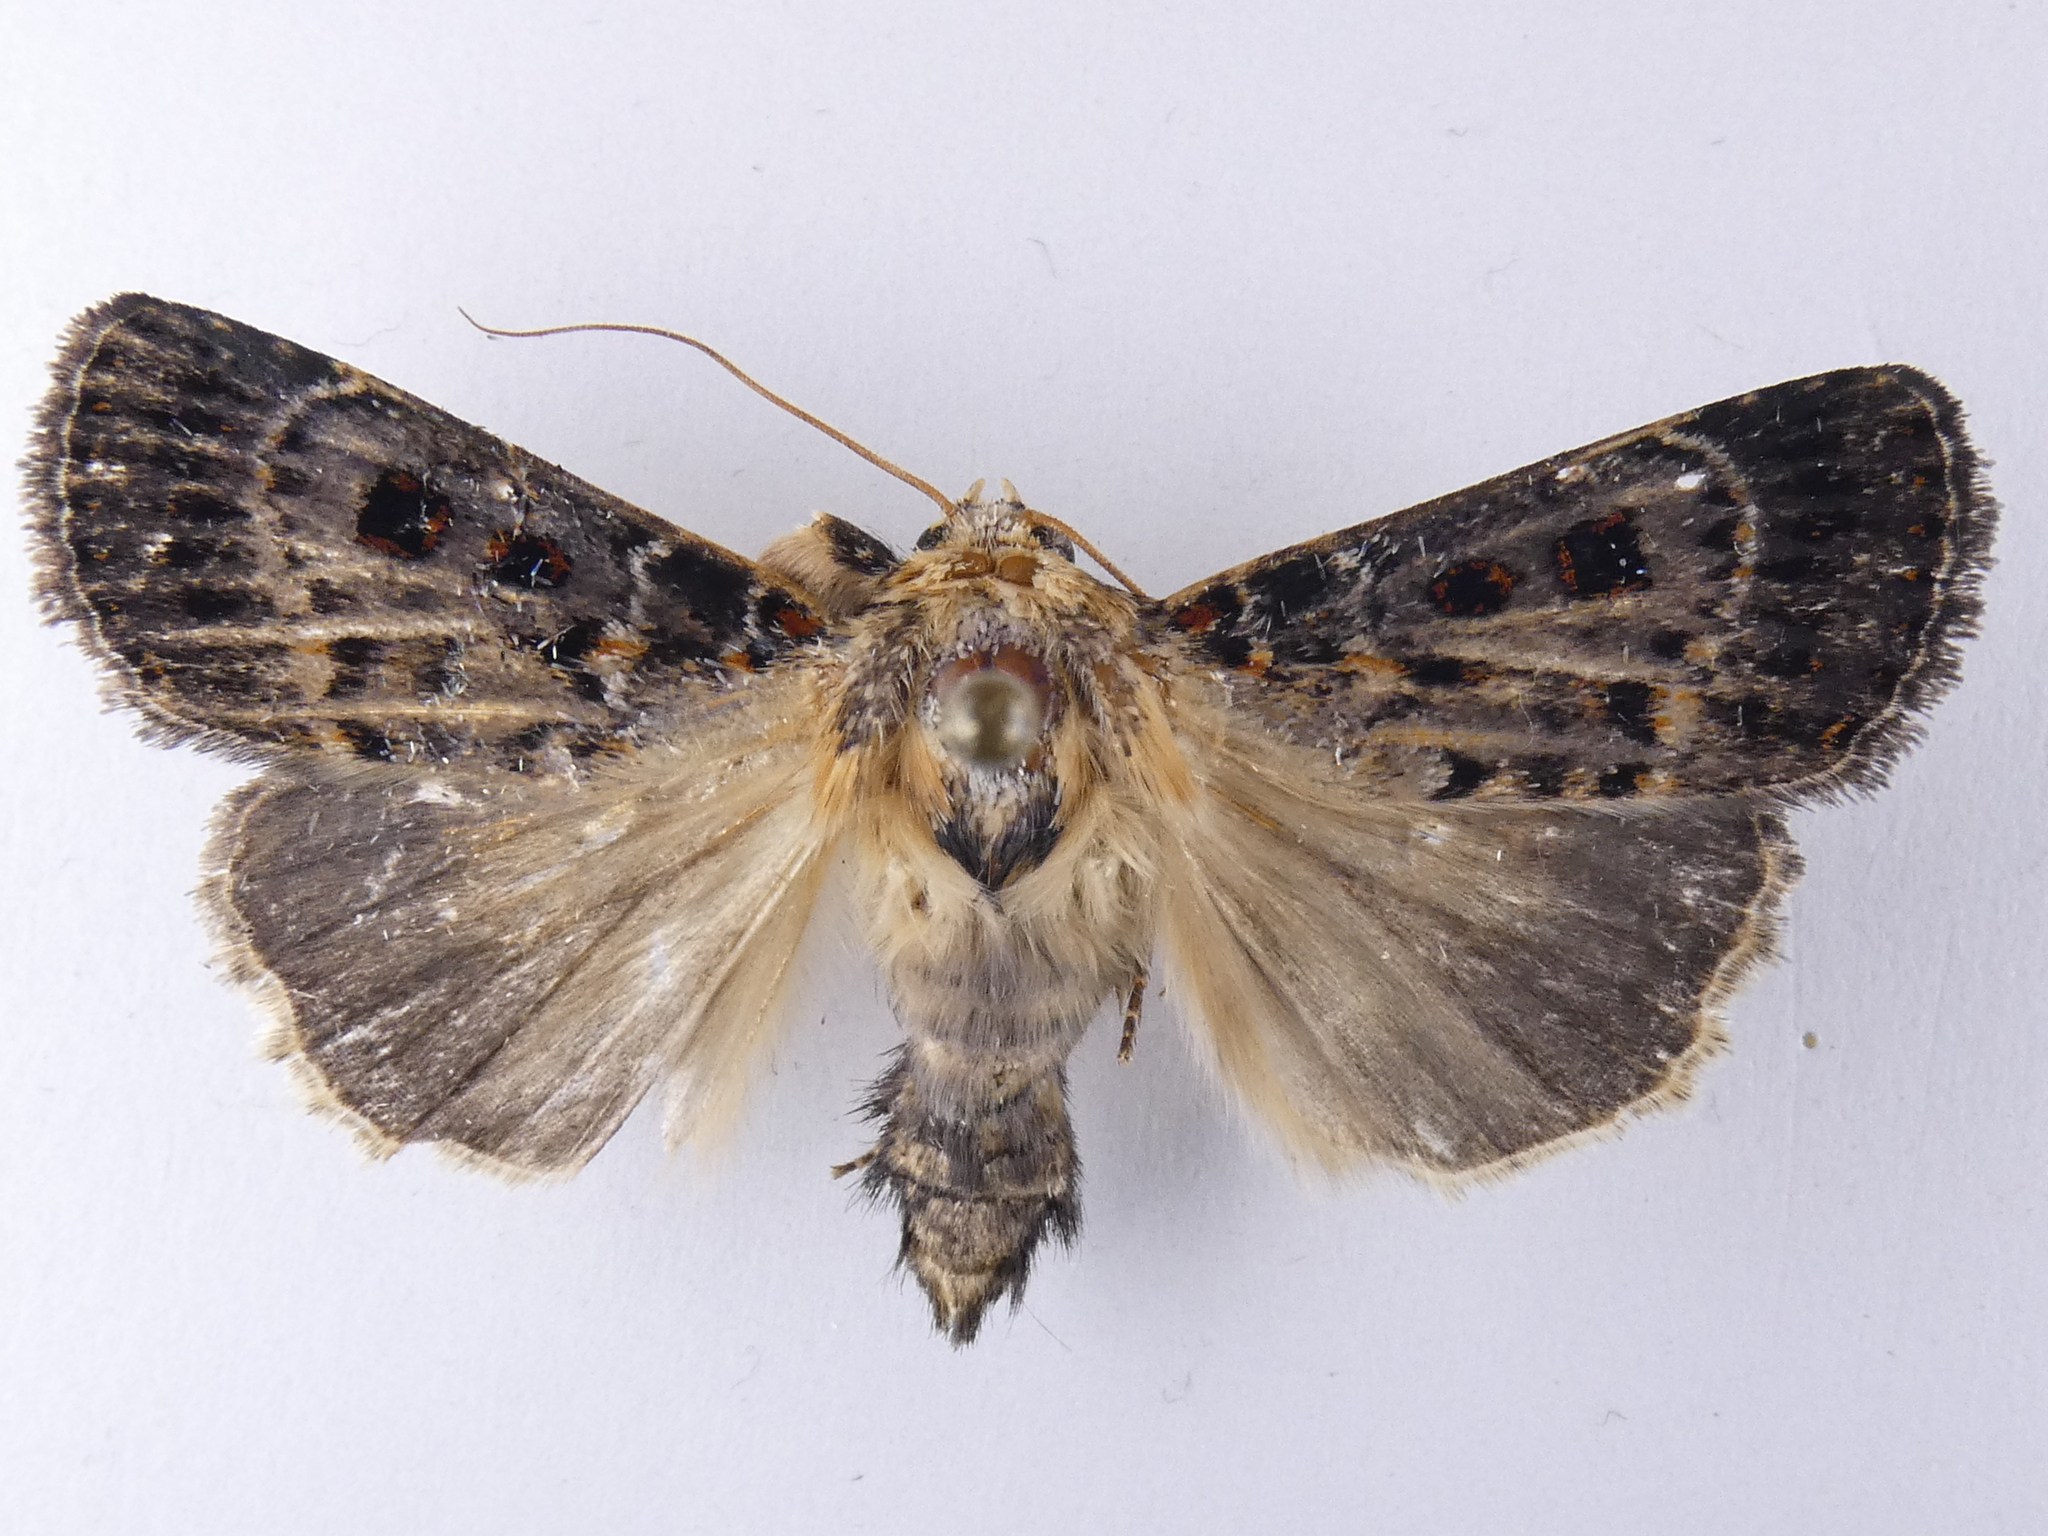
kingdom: Animalia
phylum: Arthropoda
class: Insecta
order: Lepidoptera
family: Noctuidae
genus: Proteuxoa
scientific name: Proteuxoa sanguinipuncta
